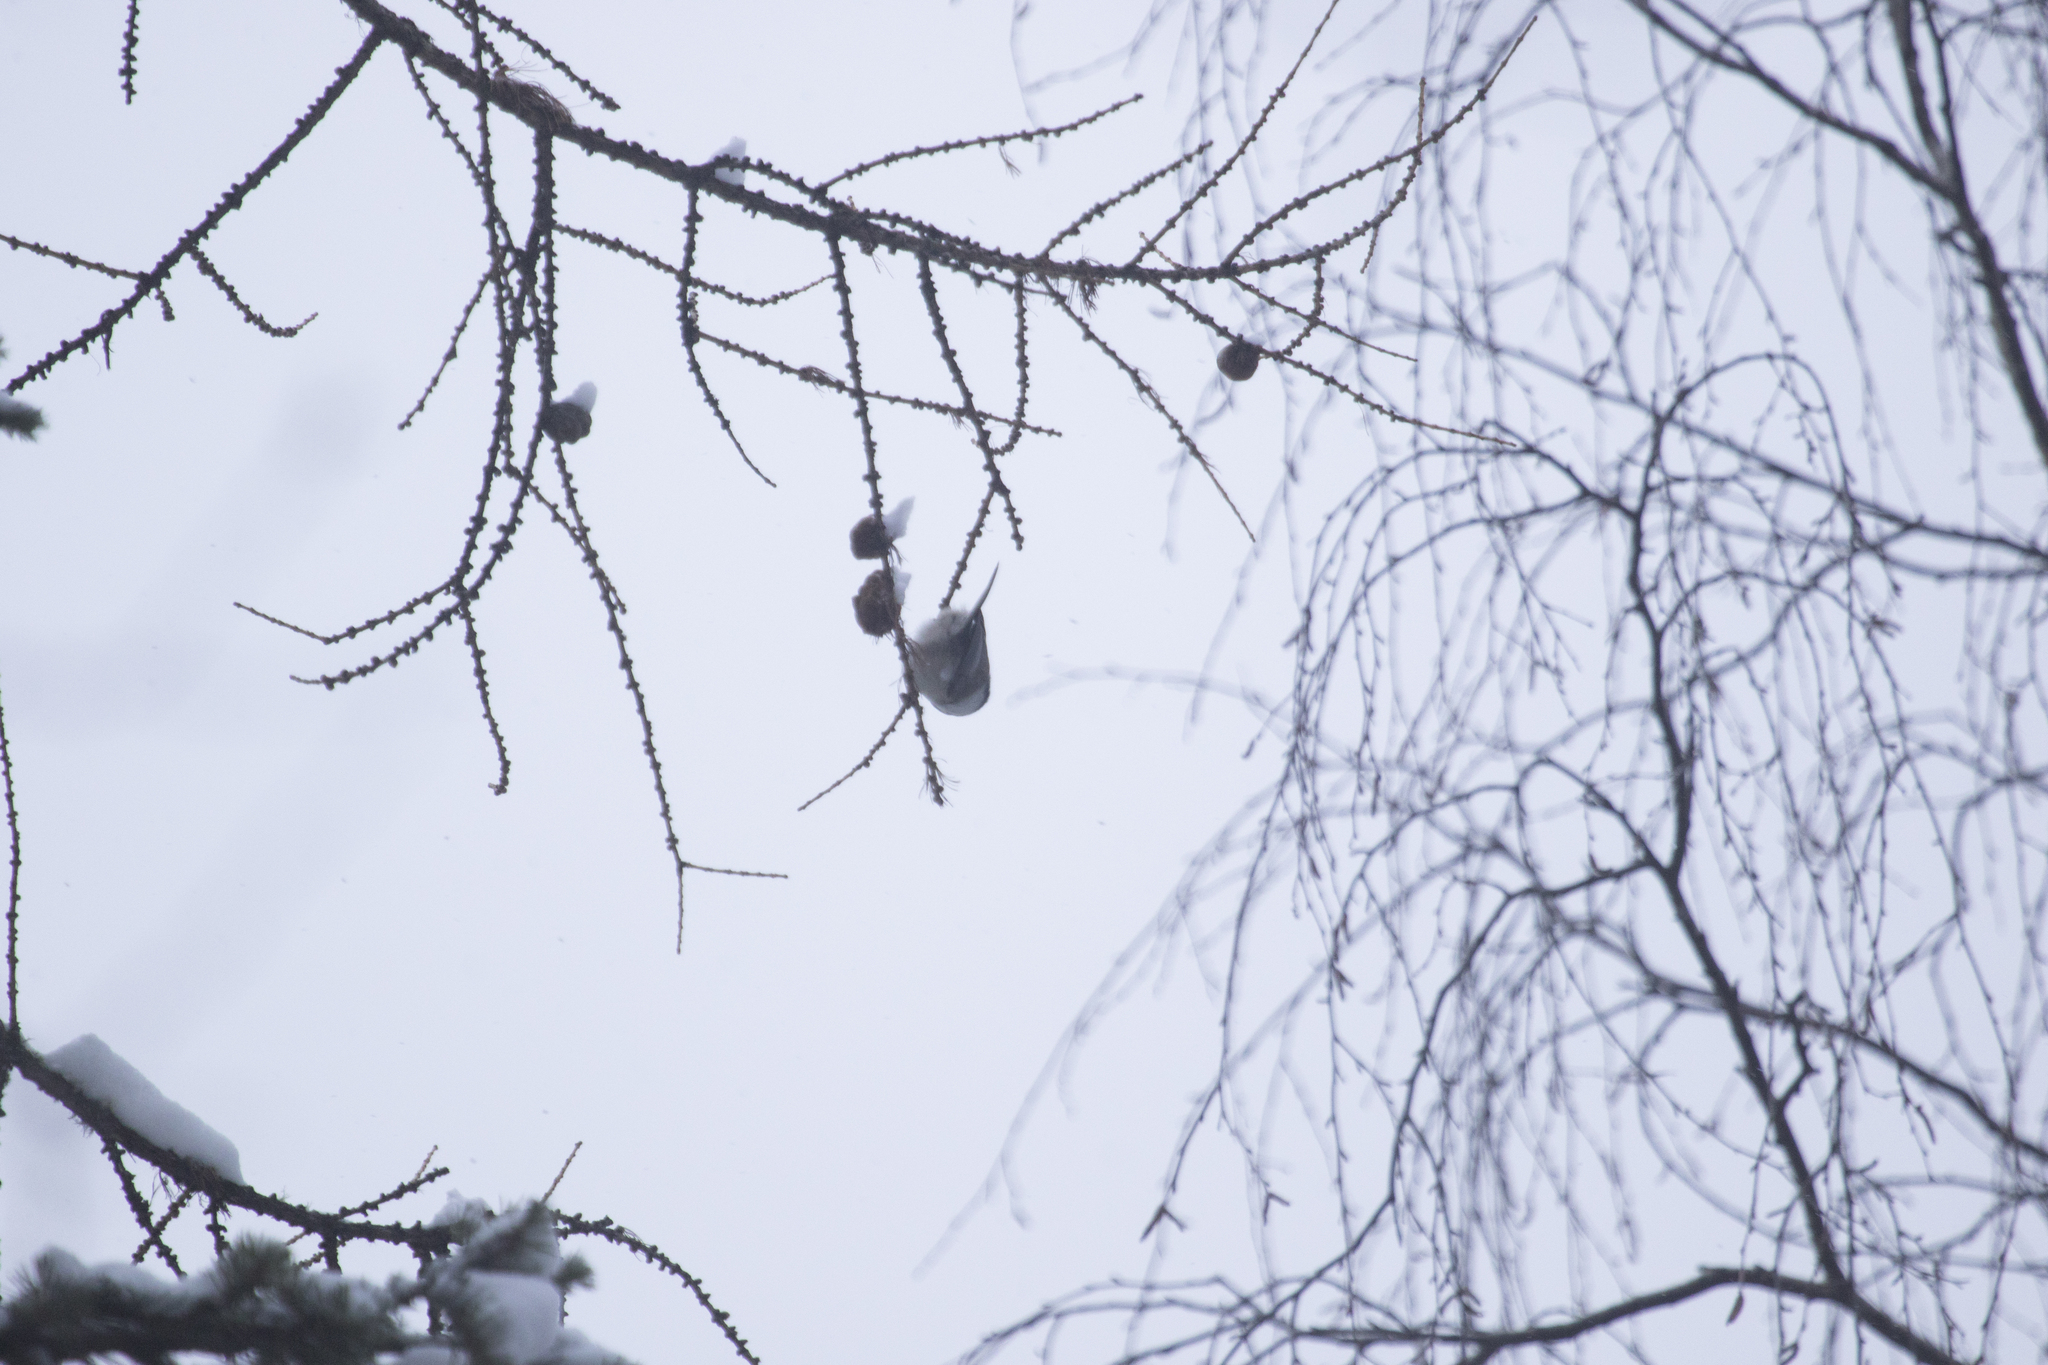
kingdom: Animalia
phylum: Chordata
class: Aves
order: Passeriformes
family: Paridae
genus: Poecile
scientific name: Poecile montanus
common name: Willow tit
